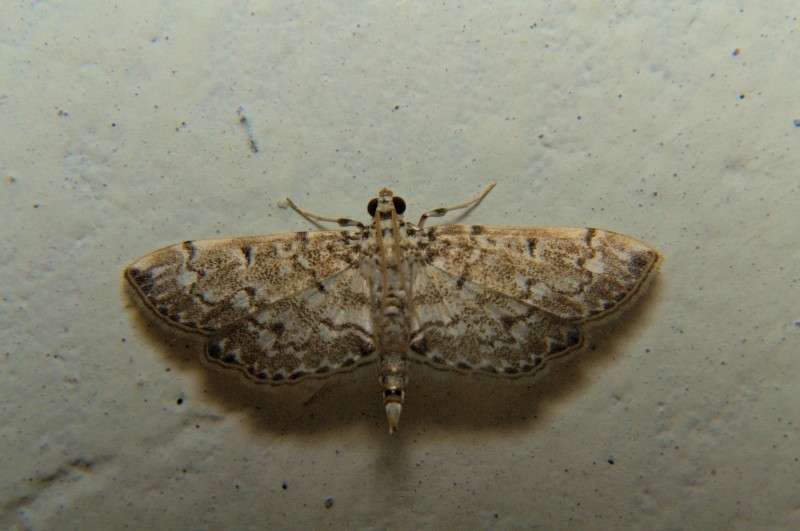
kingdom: Animalia
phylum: Arthropoda
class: Insecta
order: Lepidoptera
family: Crambidae
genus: Metoeca
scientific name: Metoeca foedalis
